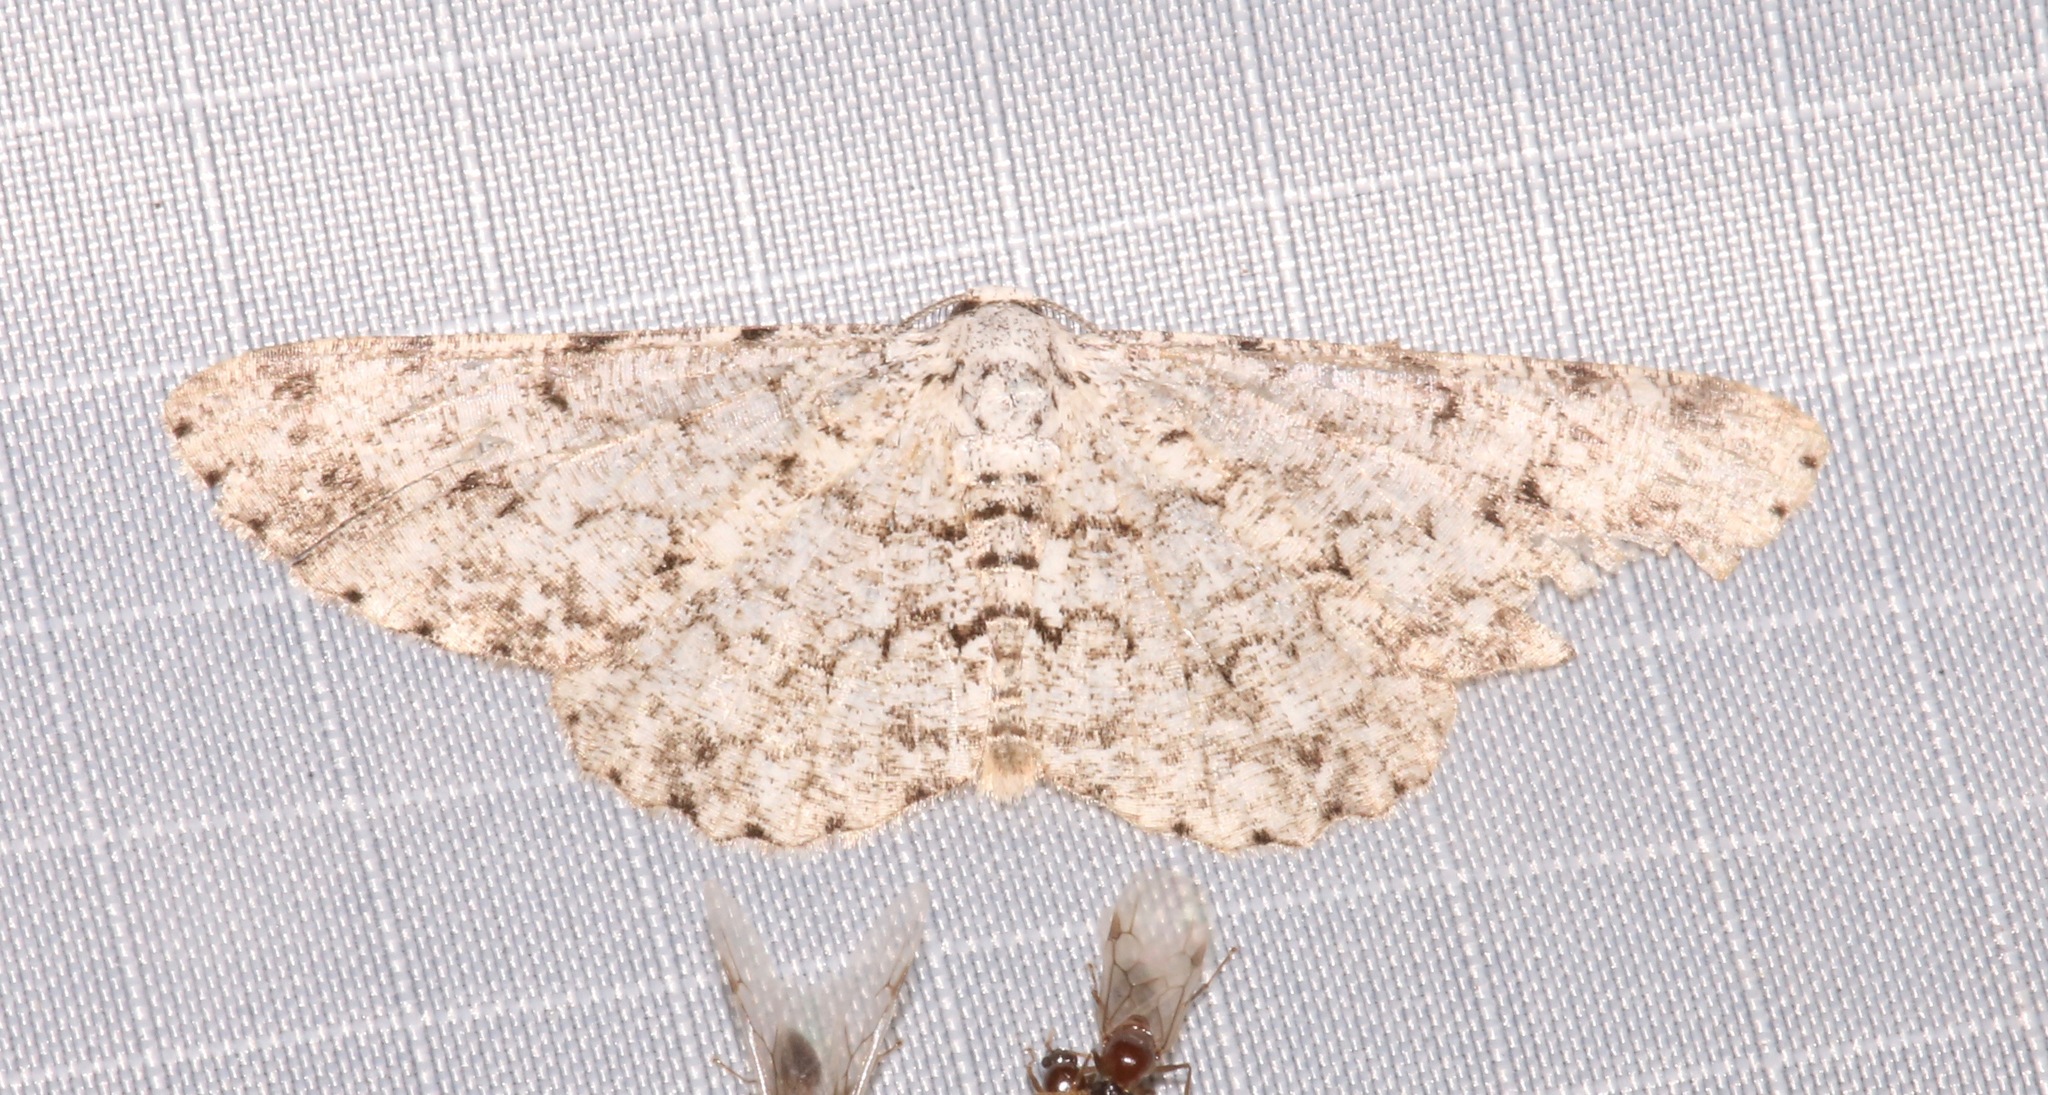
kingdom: Animalia
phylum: Arthropoda
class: Insecta
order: Lepidoptera
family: Geometridae
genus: Glena
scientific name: Glena grisearia
